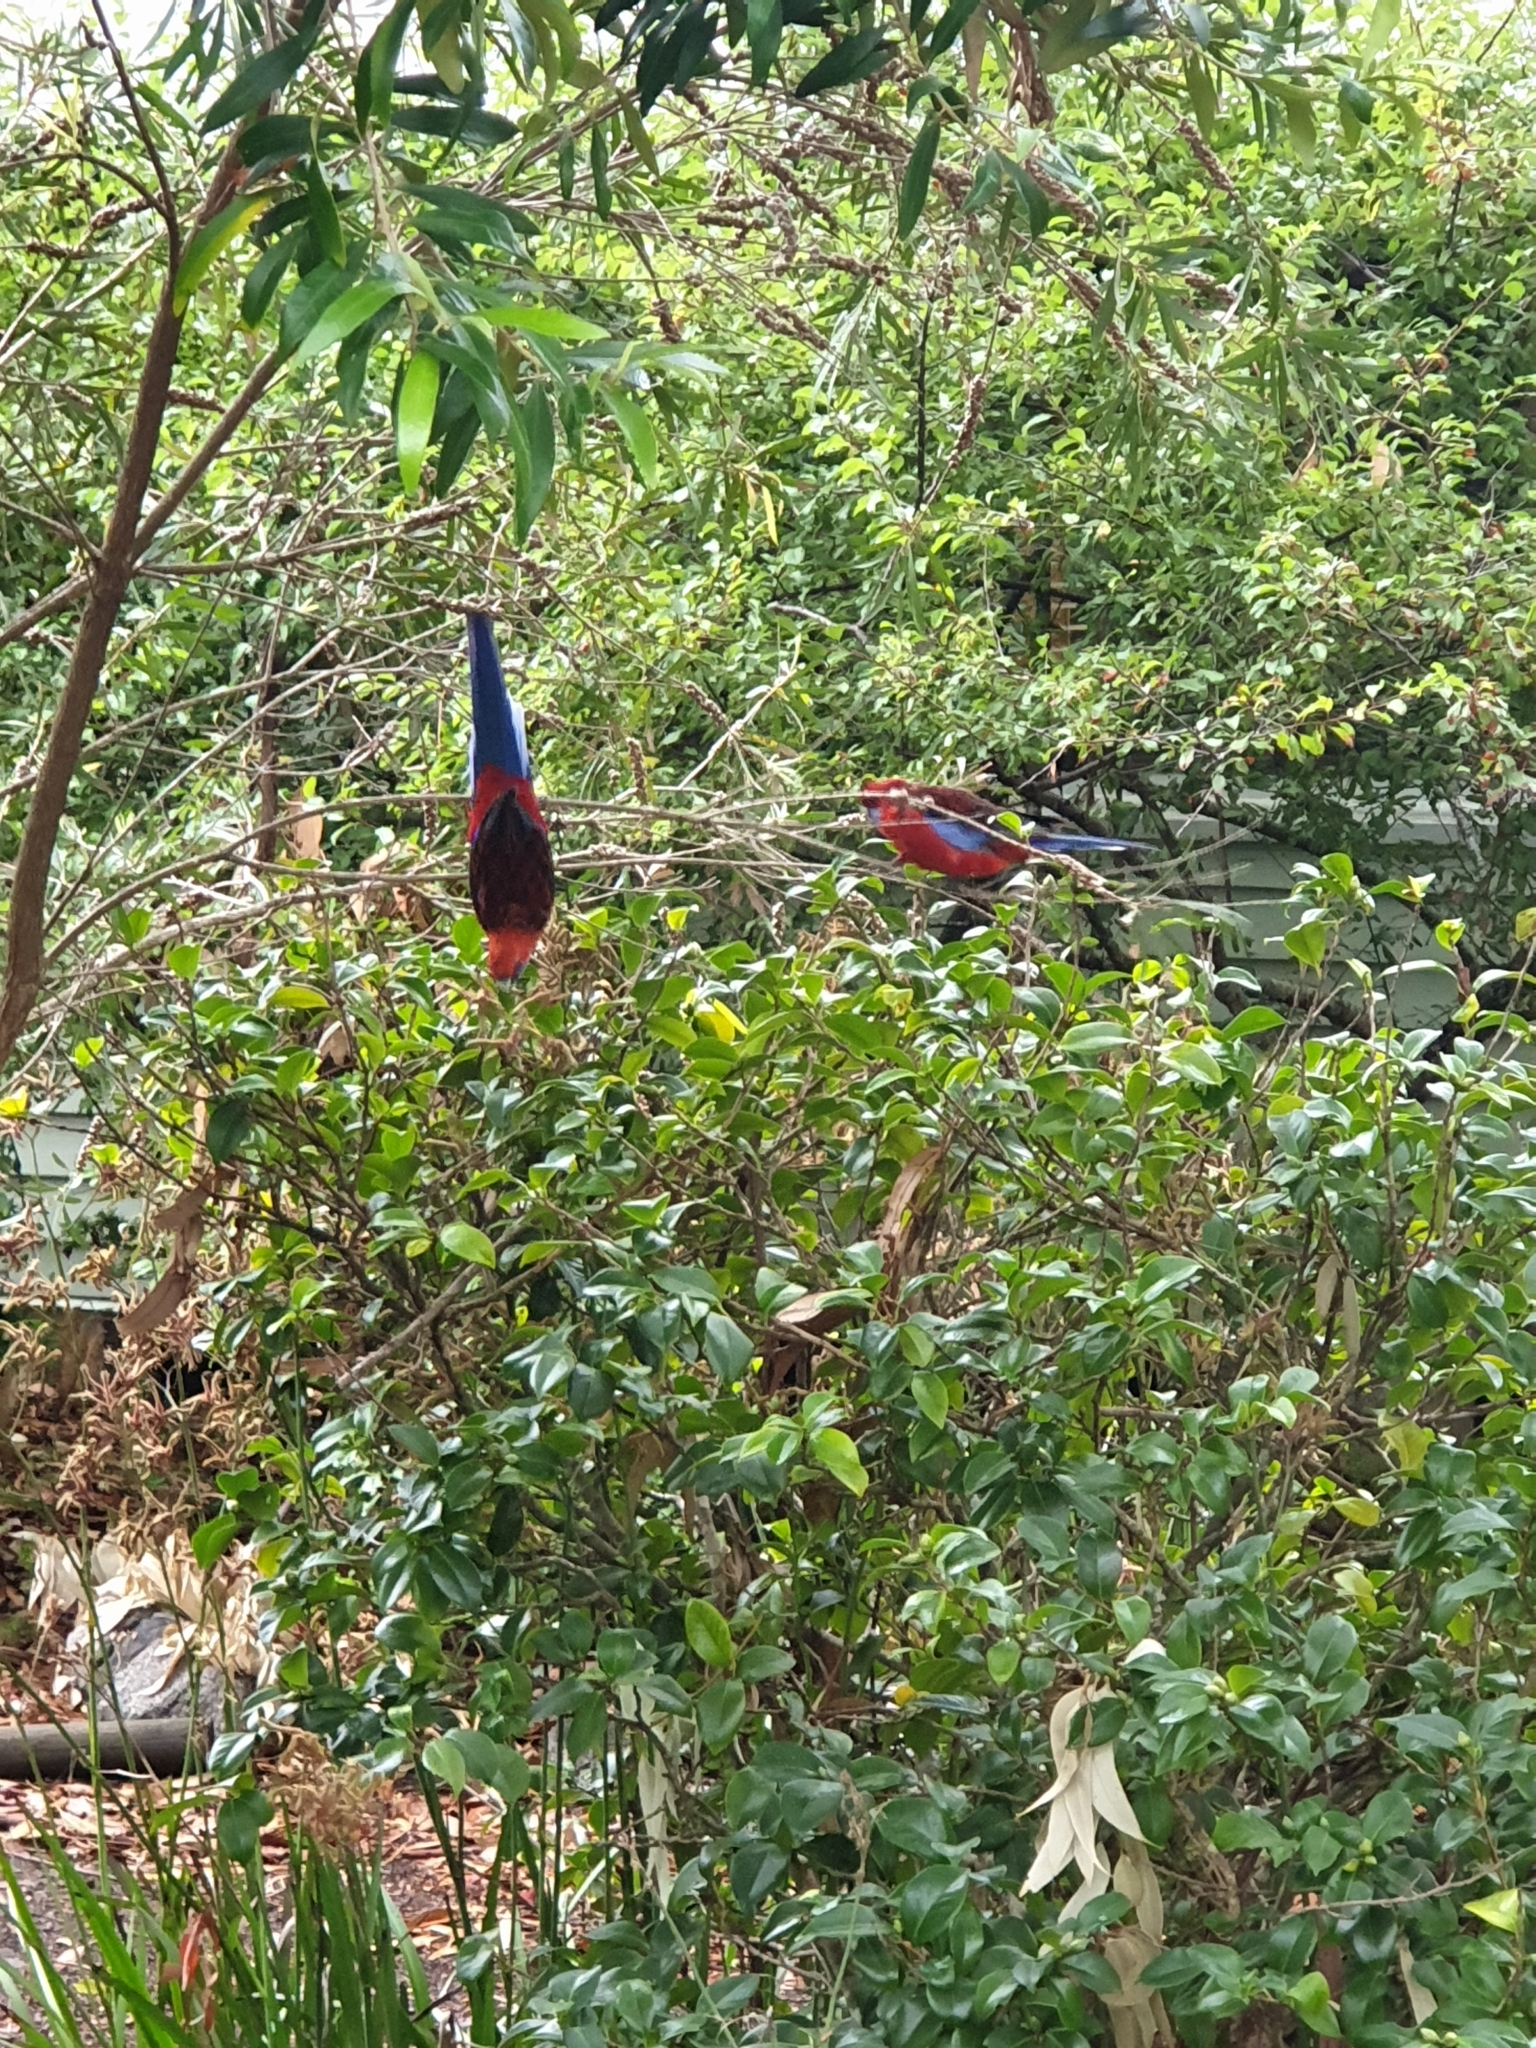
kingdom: Animalia
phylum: Chordata
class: Aves
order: Psittaciformes
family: Psittacidae
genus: Platycercus
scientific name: Platycercus elegans
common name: Crimson rosella
